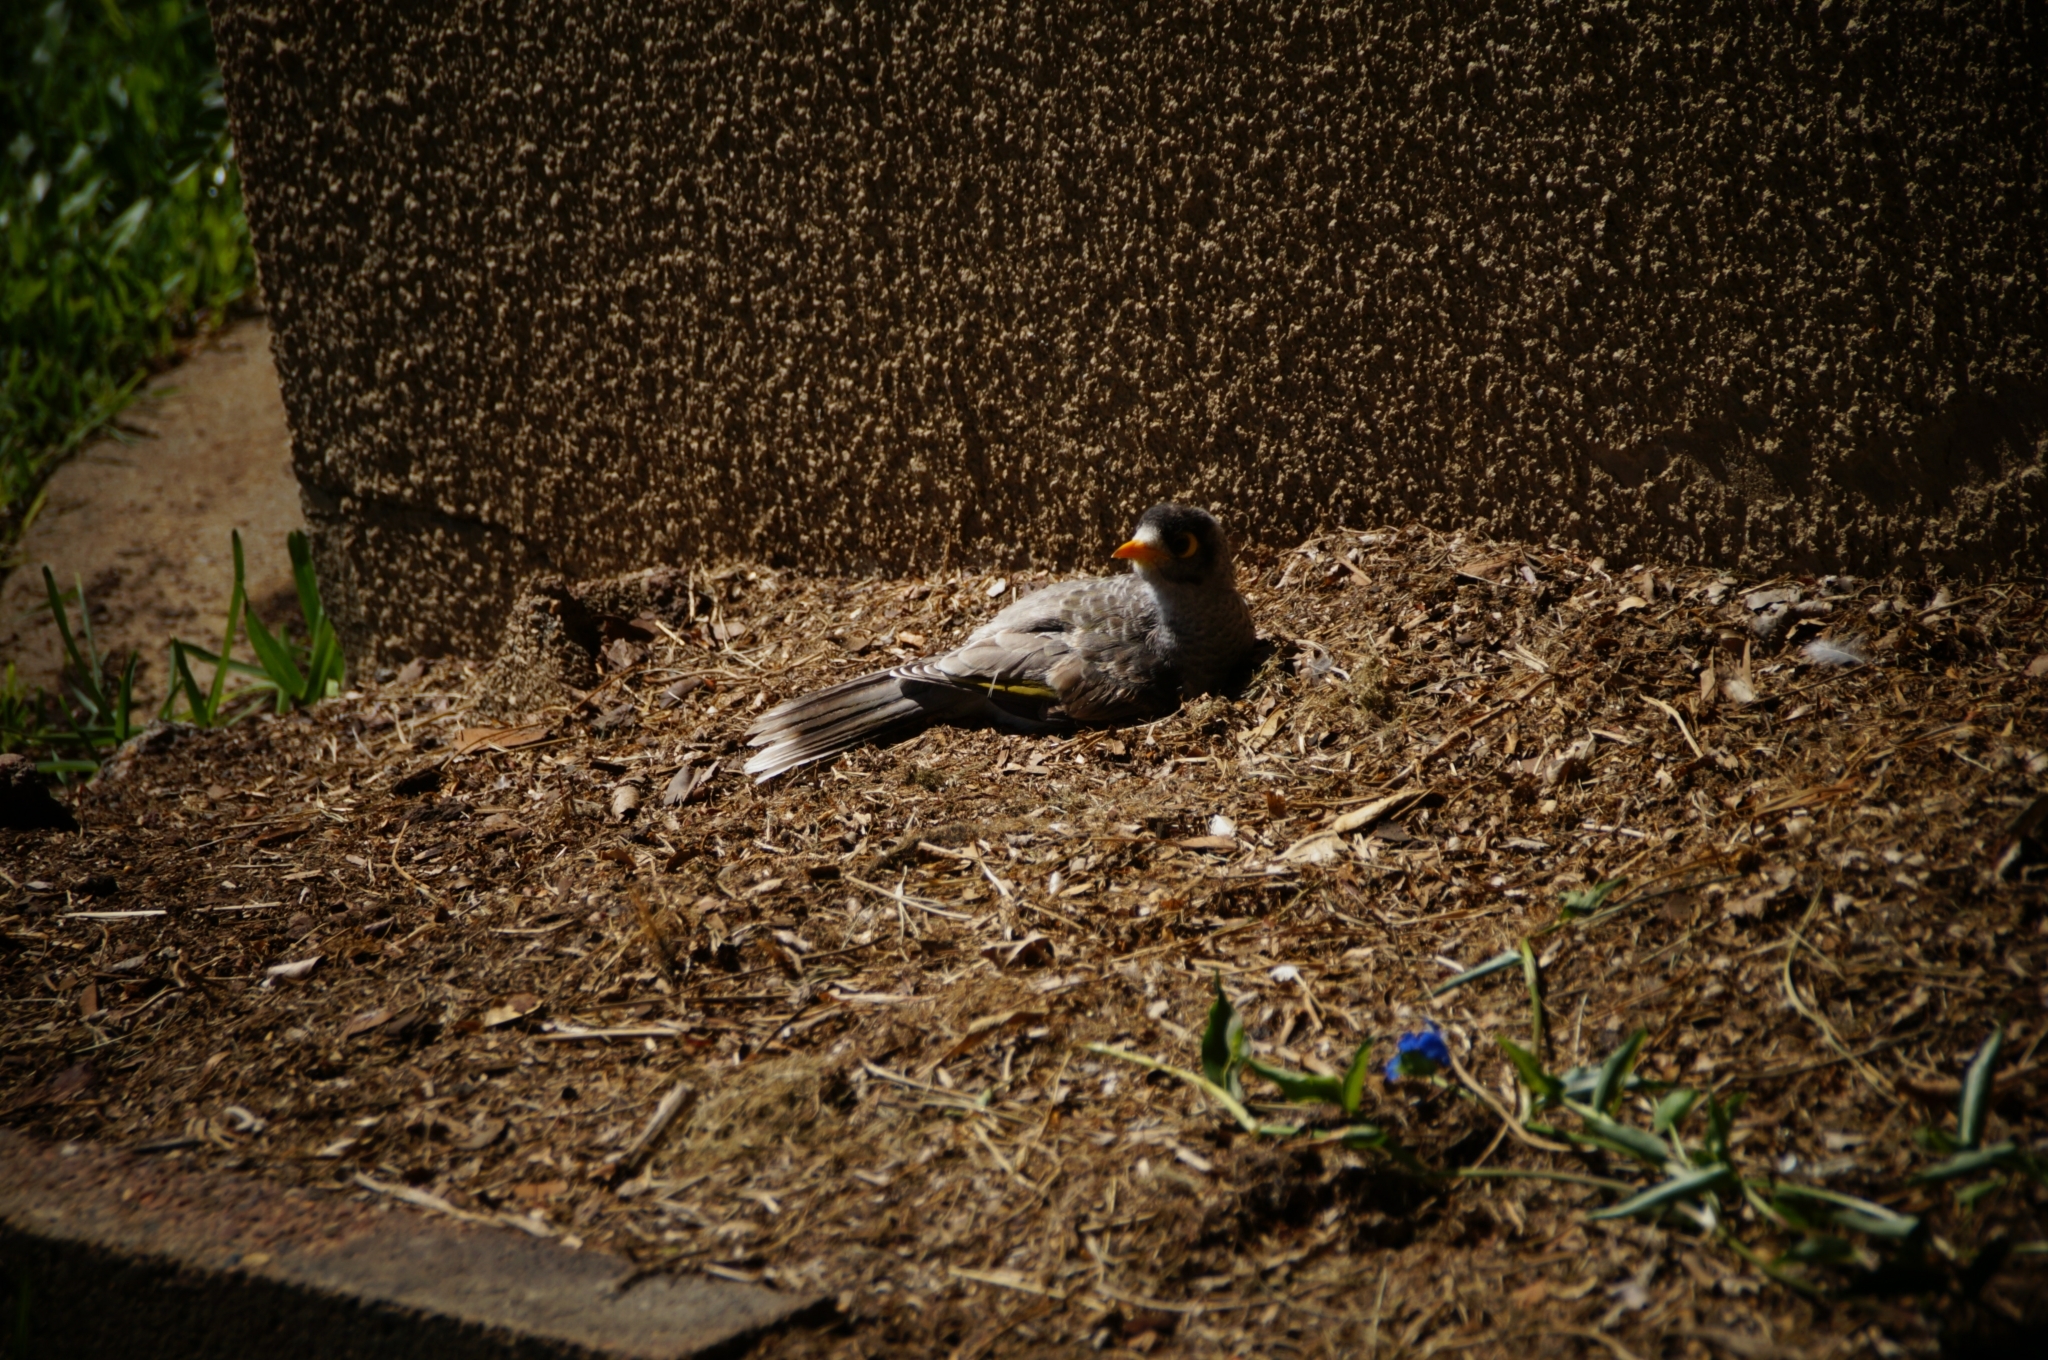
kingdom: Animalia
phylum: Chordata
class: Aves
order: Passeriformes
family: Meliphagidae
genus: Manorina
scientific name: Manorina melanocephala
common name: Noisy miner
